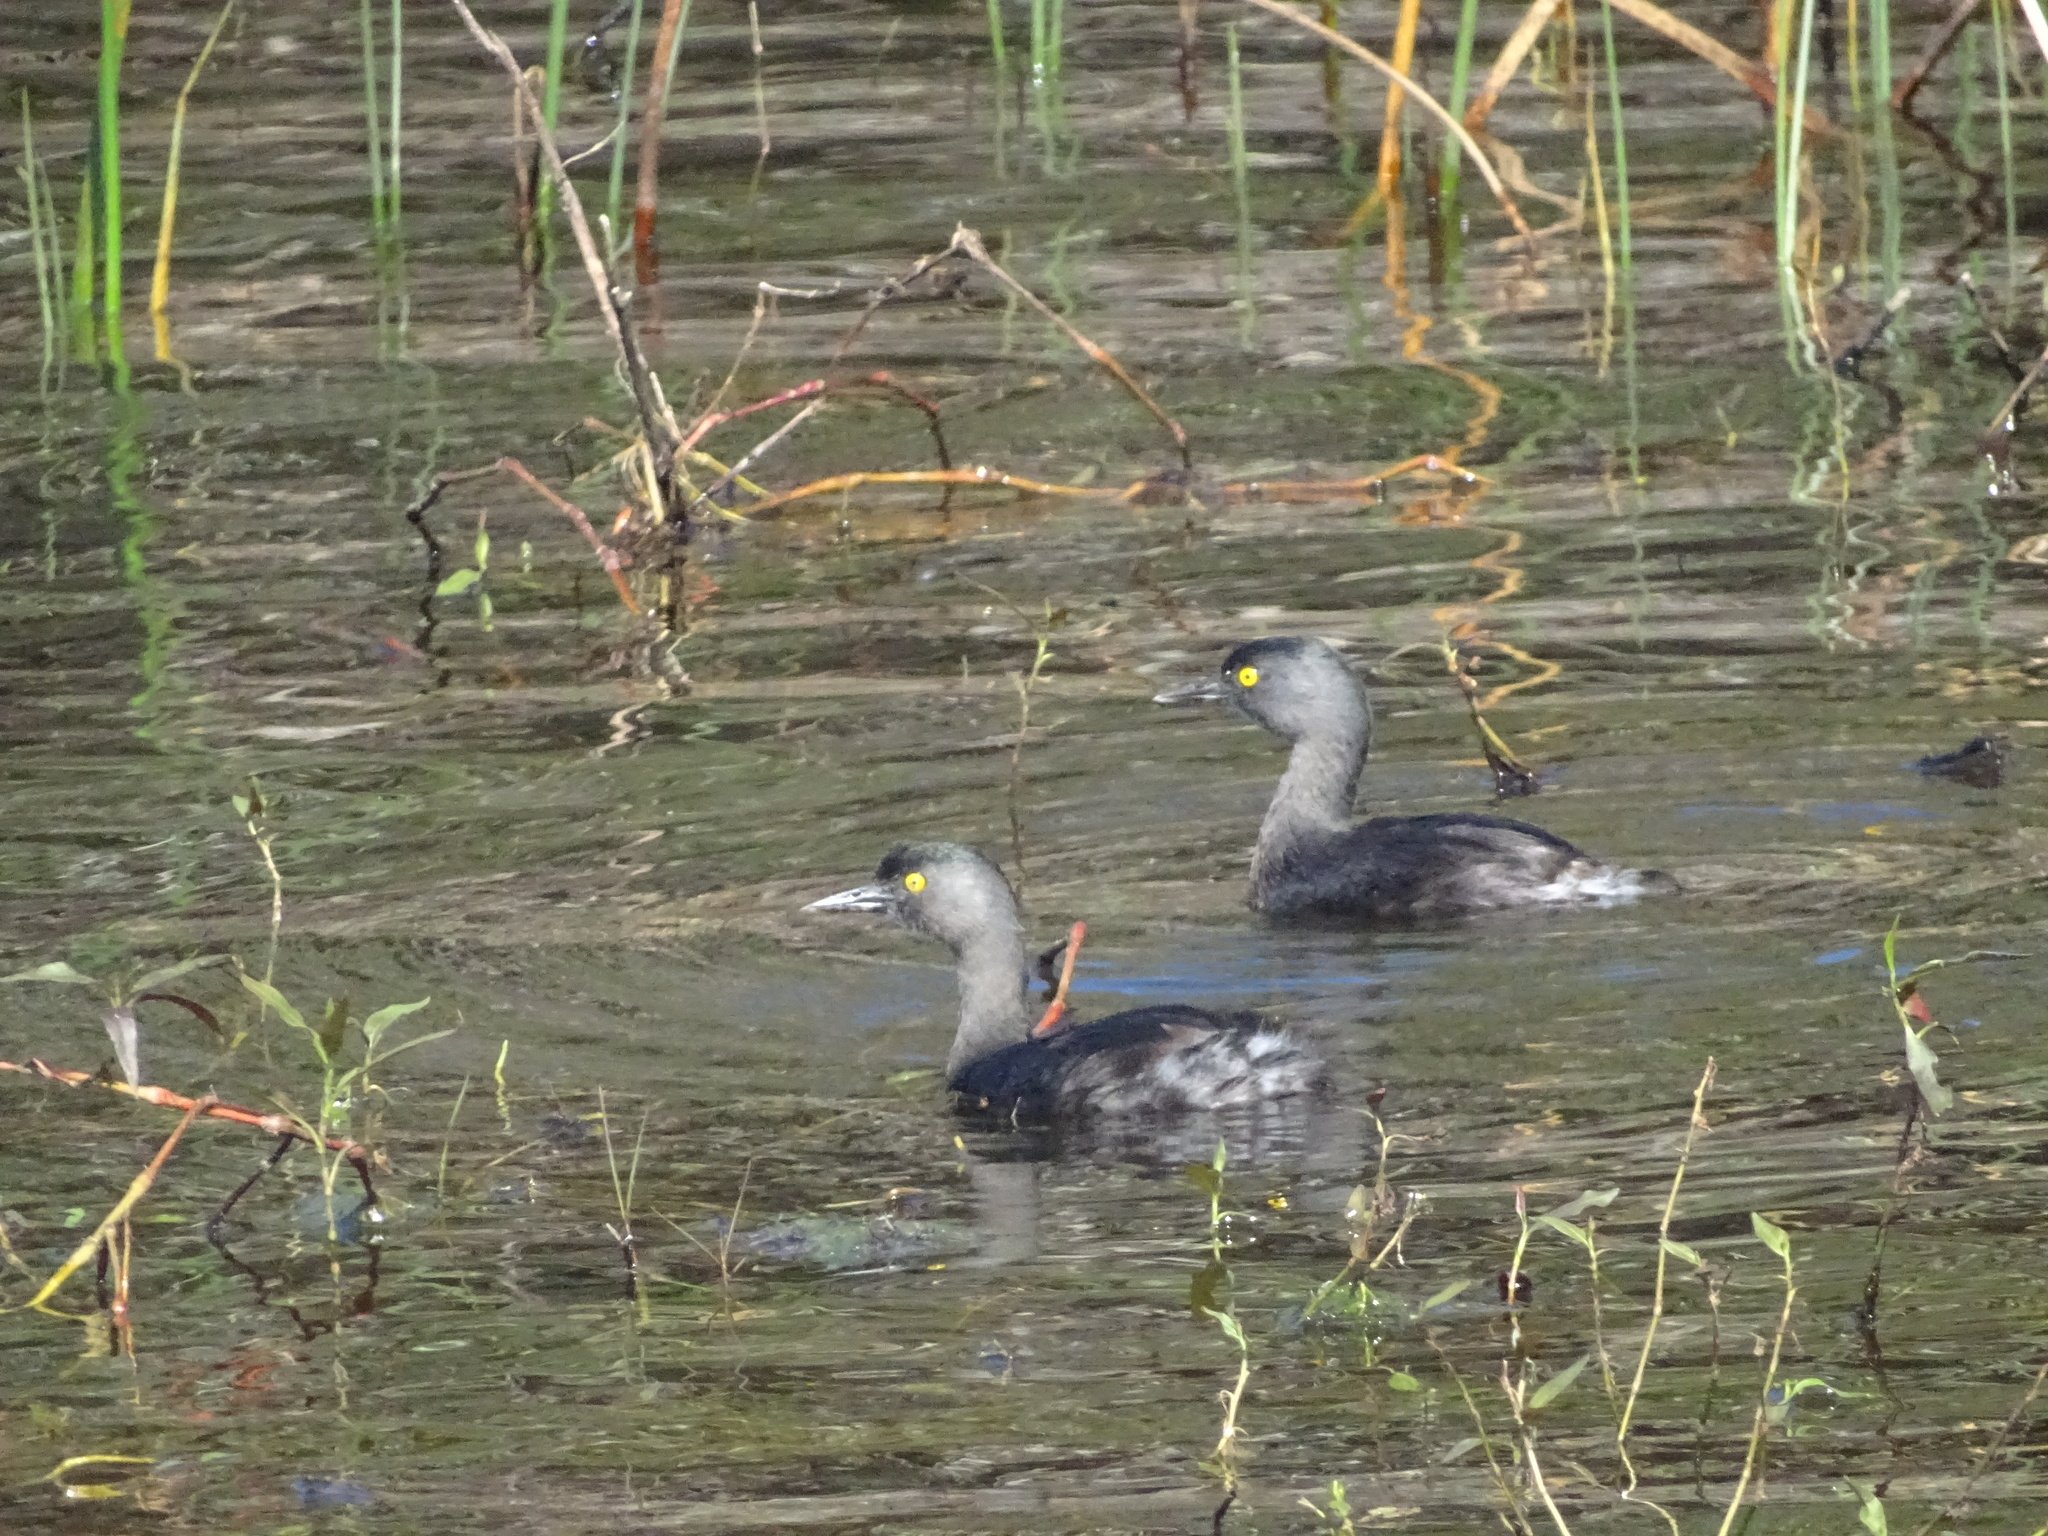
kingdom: Animalia
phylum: Chordata
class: Aves
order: Podicipediformes
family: Podicipedidae
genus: Tachybaptus
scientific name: Tachybaptus dominicus
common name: Least grebe
